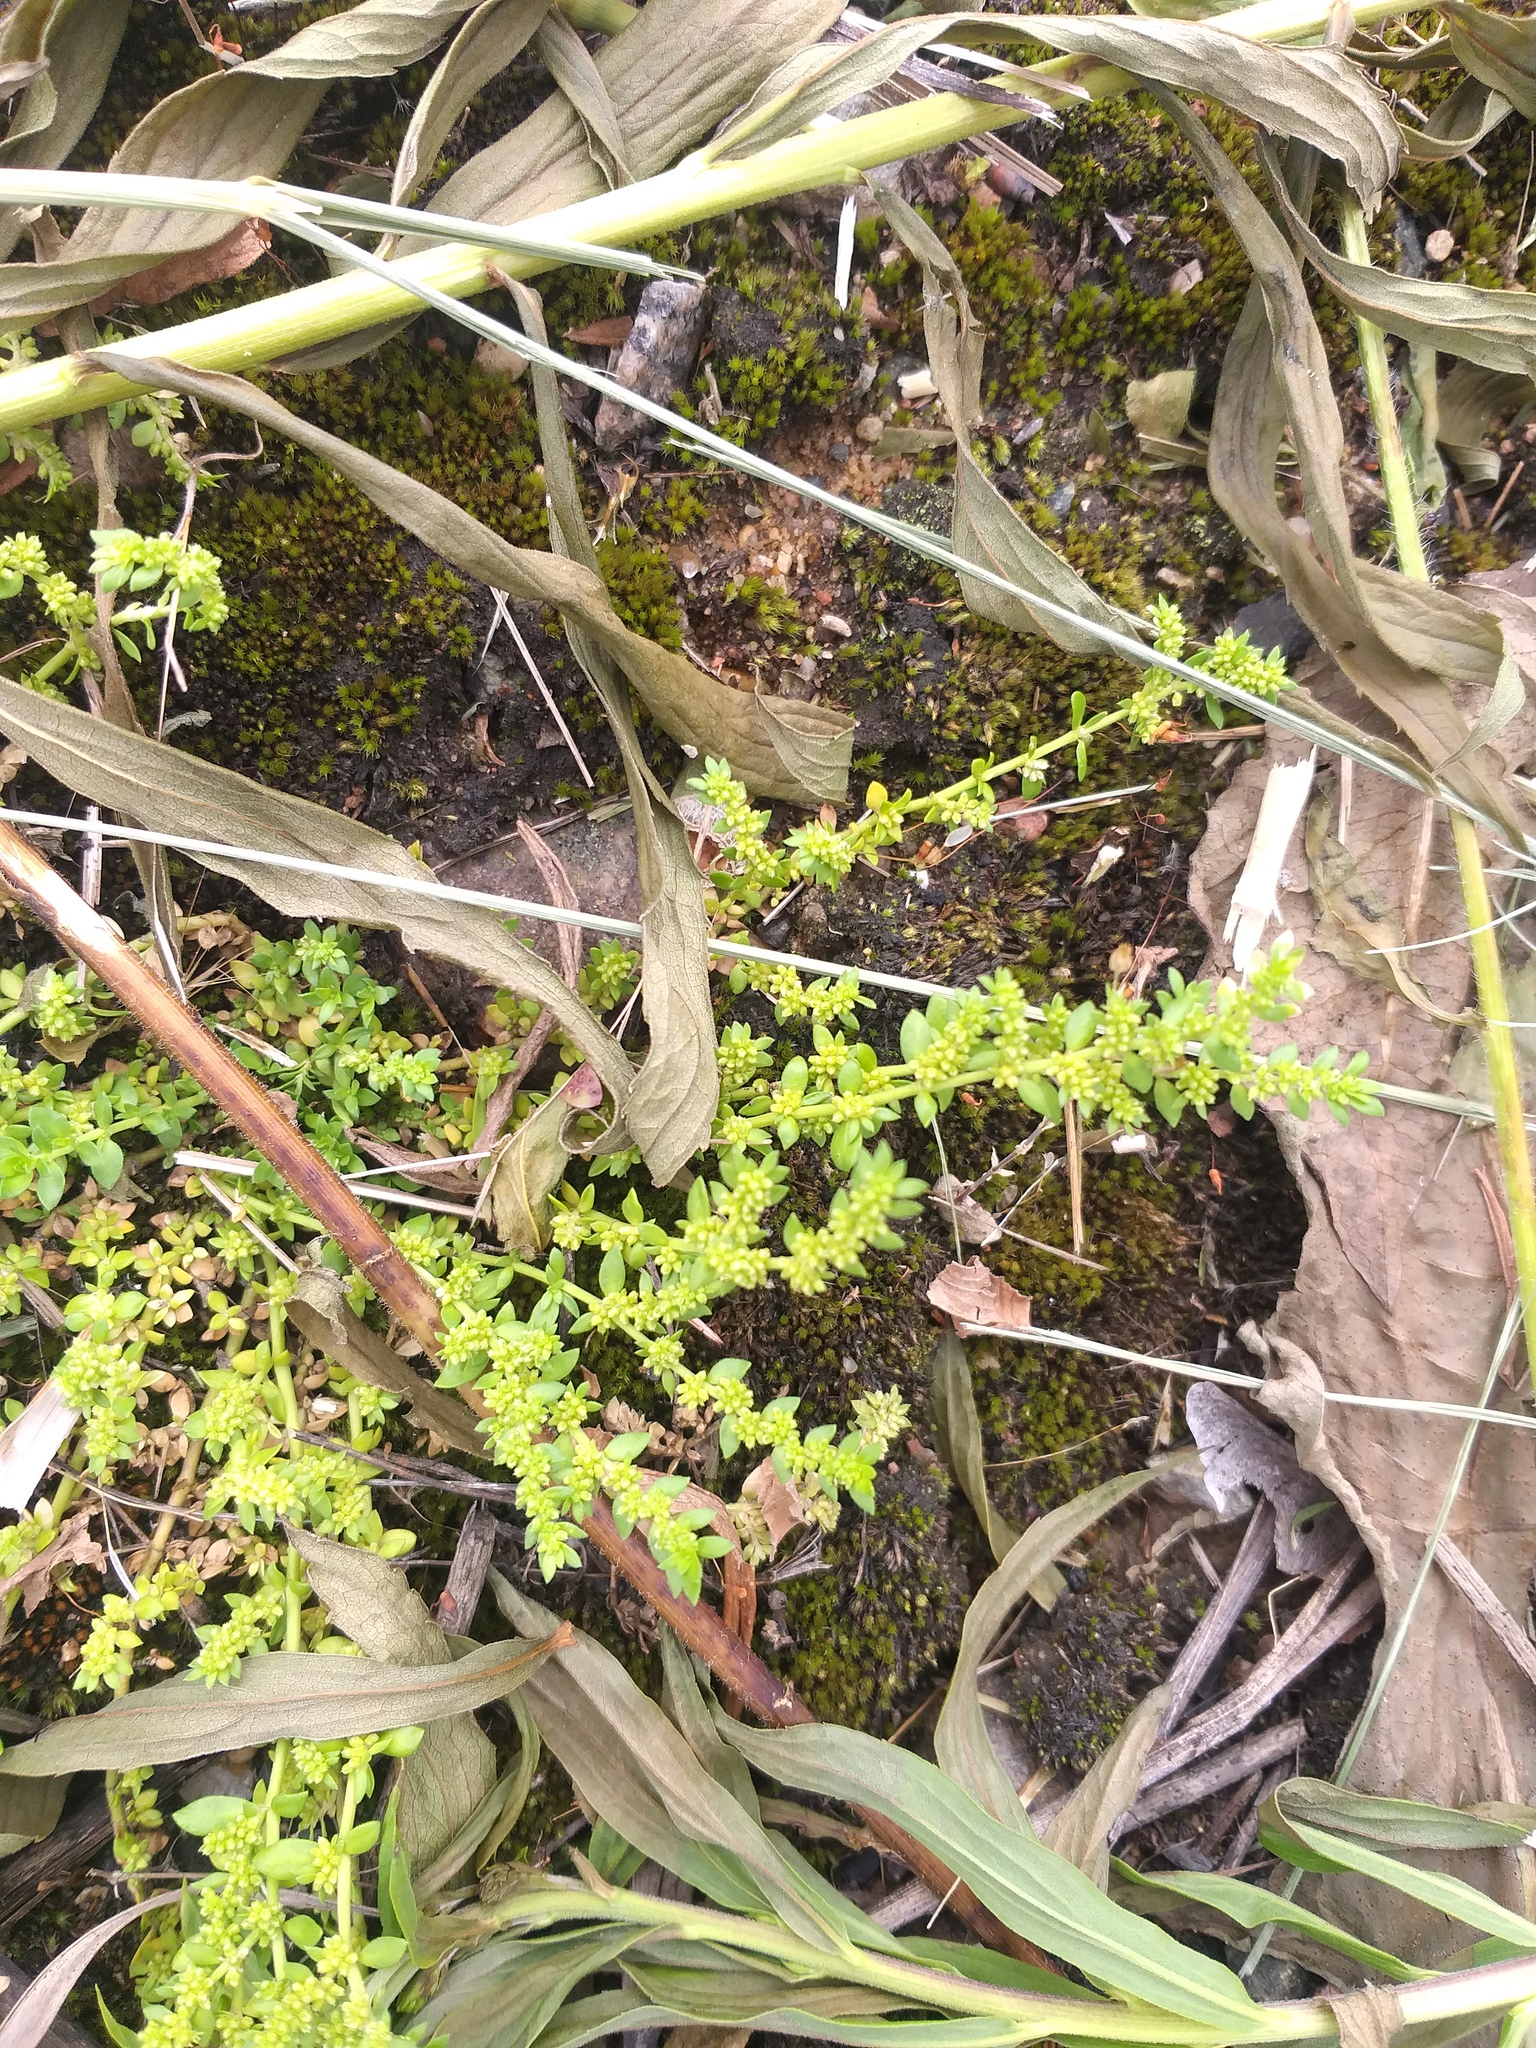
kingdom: Plantae
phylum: Tracheophyta
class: Magnoliopsida
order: Caryophyllales
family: Caryophyllaceae
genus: Herniaria
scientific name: Herniaria glabra
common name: Smooth rupturewort
